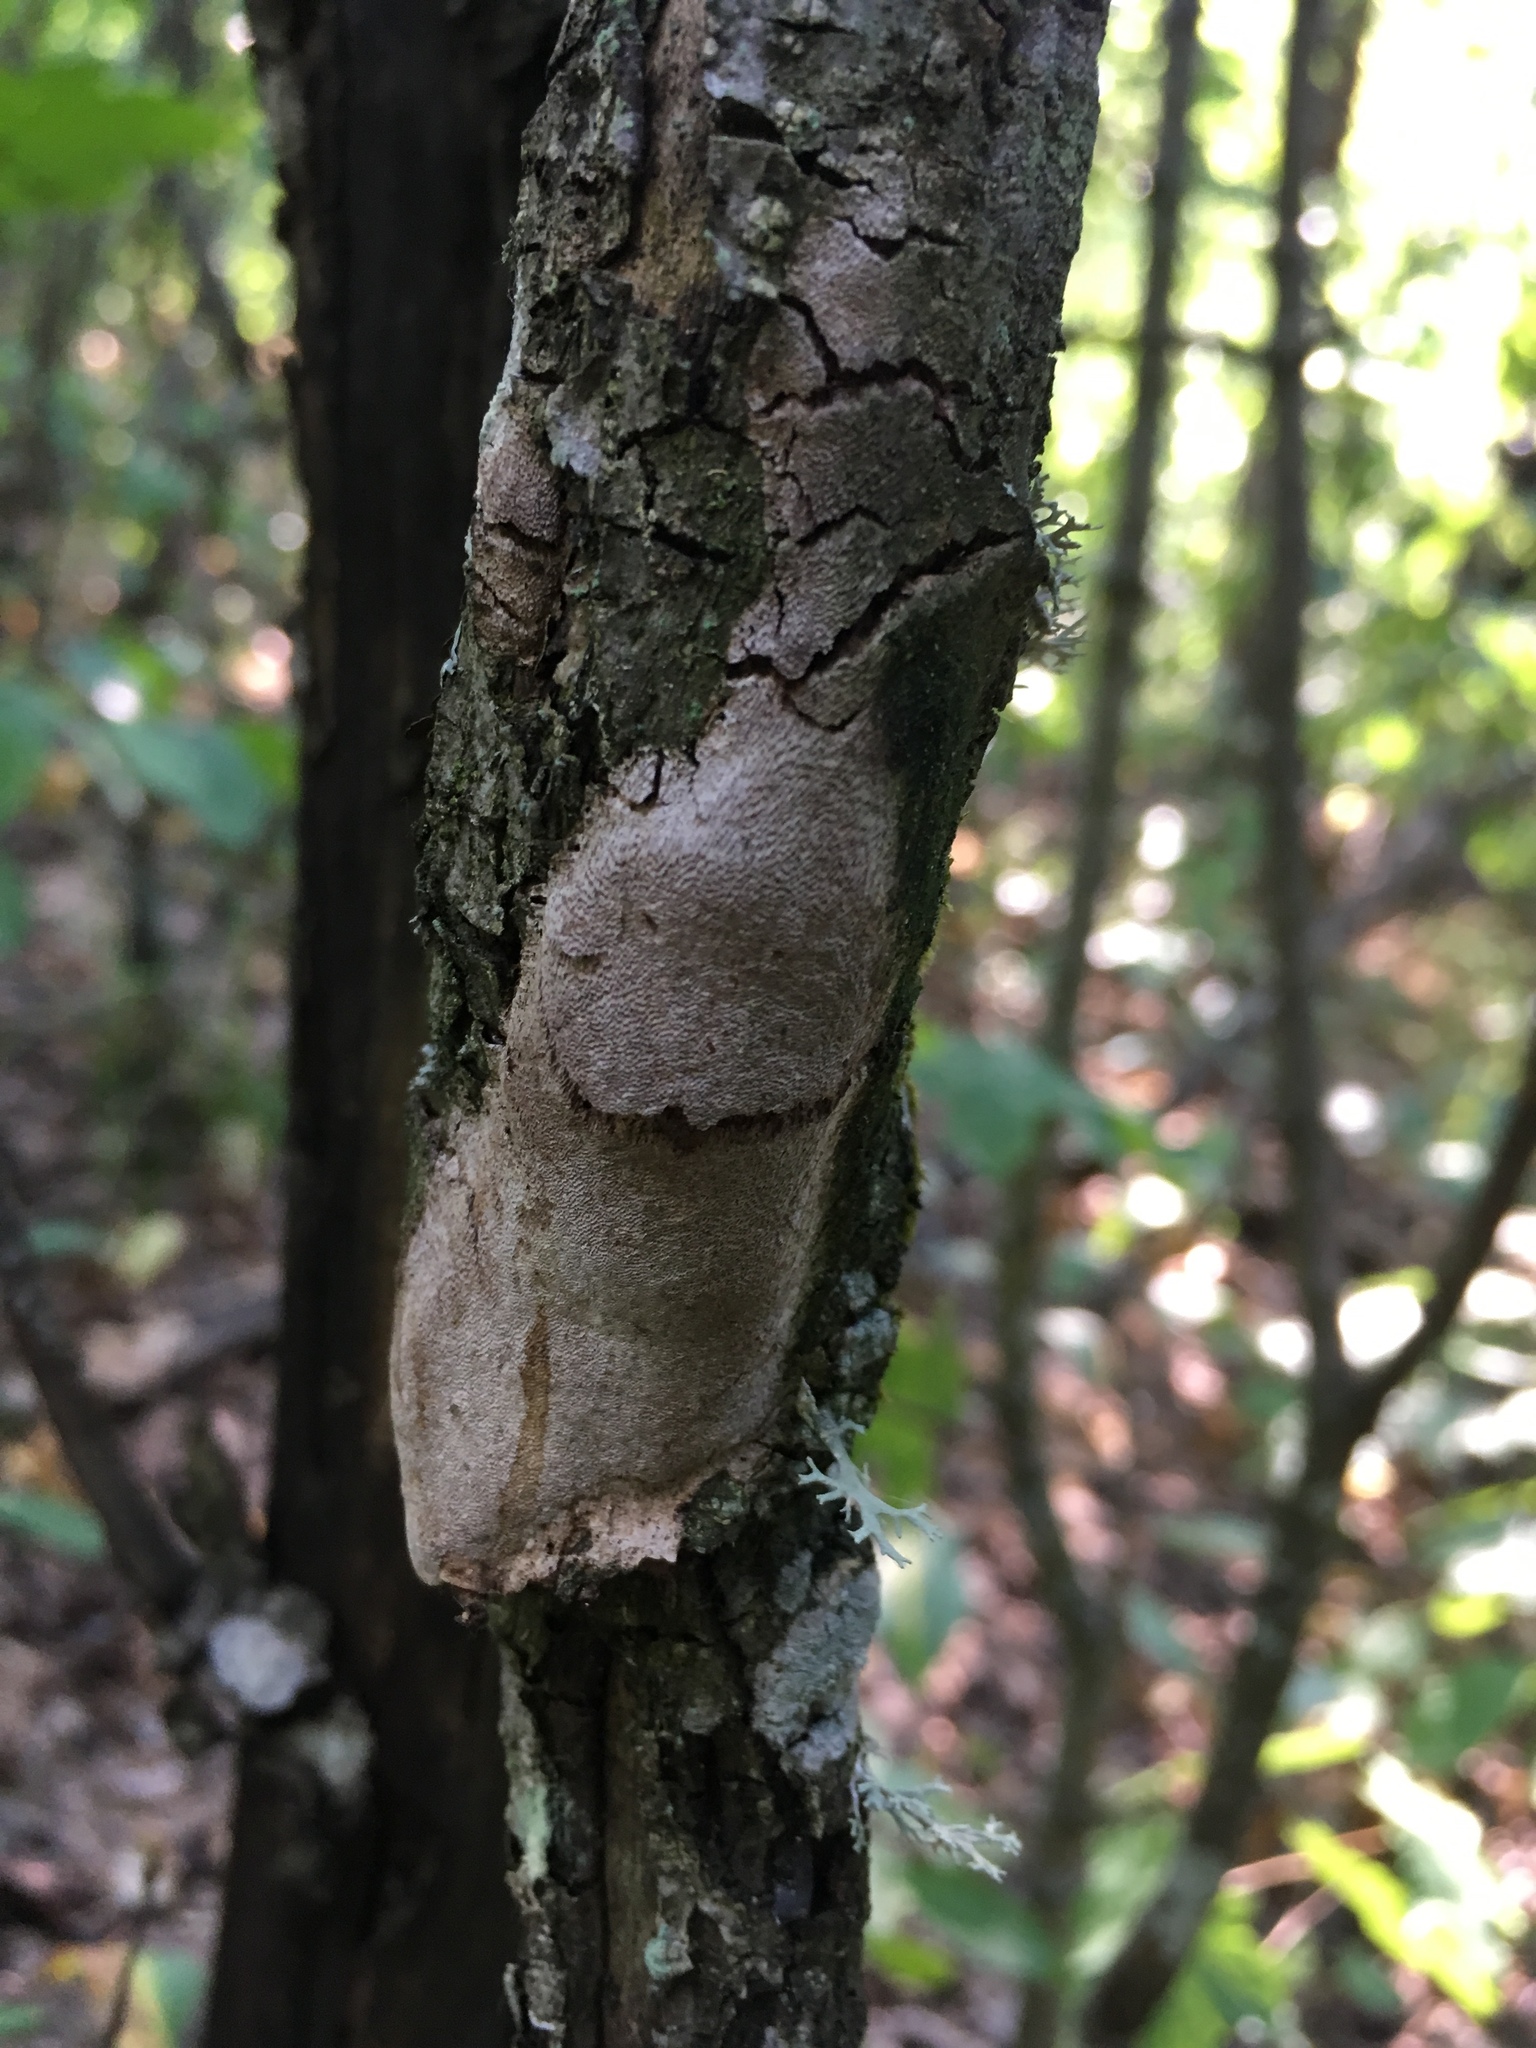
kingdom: Fungi
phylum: Basidiomycota
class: Agaricomycetes
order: Hymenochaetales
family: Hymenochaetaceae
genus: Fomitiporia
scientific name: Fomitiporia punctata
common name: Elbowpatch crust
